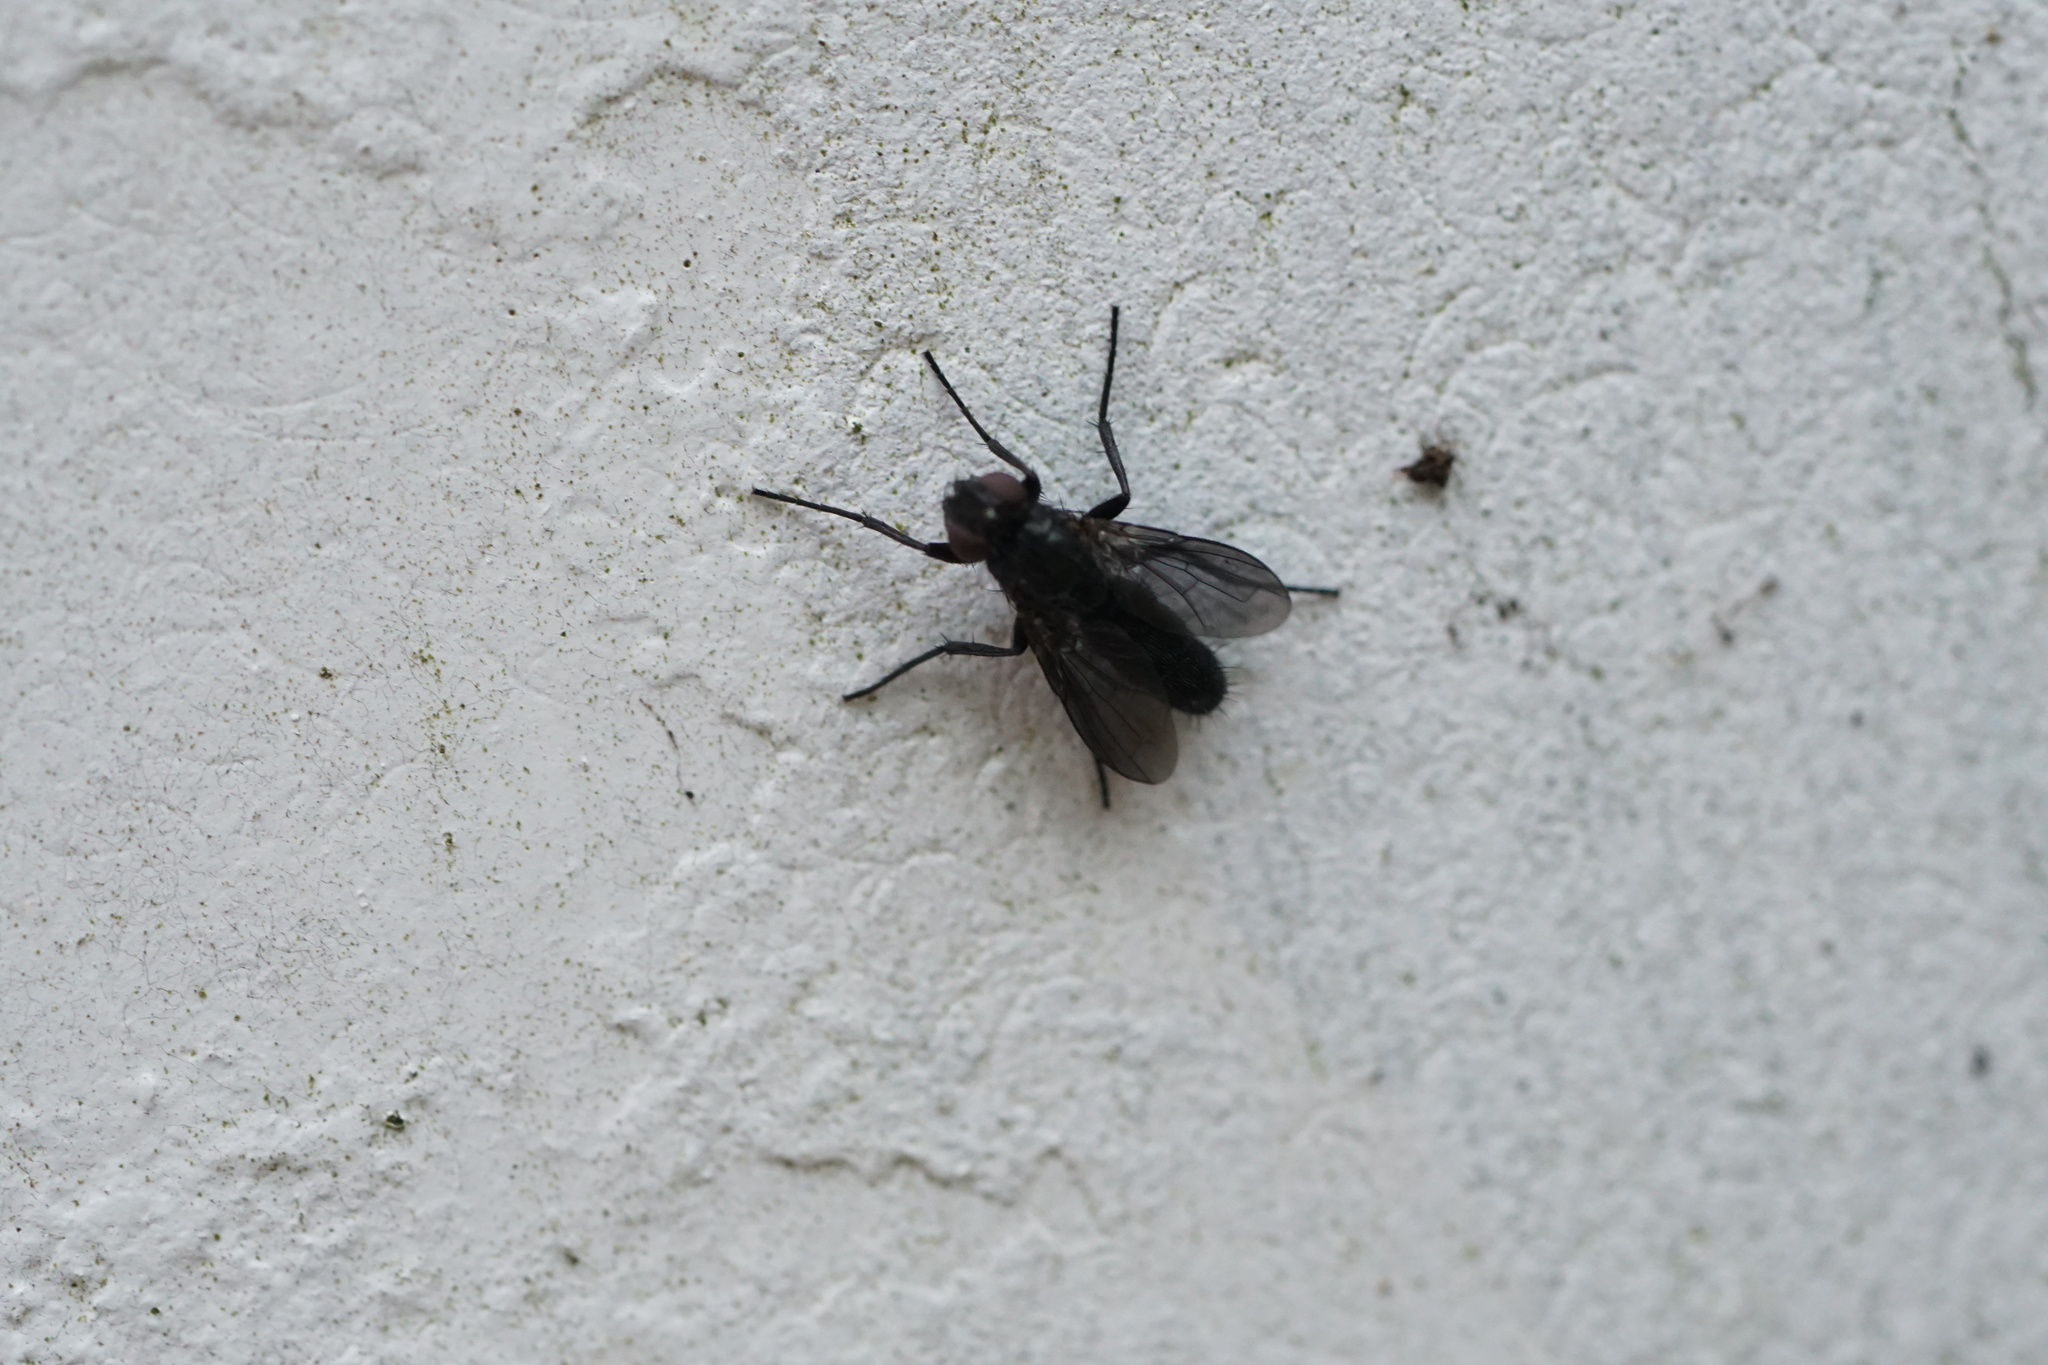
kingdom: Animalia
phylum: Arthropoda
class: Insecta
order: Diptera
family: Calliphoridae
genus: Melanophora
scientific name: Melanophora roralis
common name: Smoky-winged woodlouse-fly
